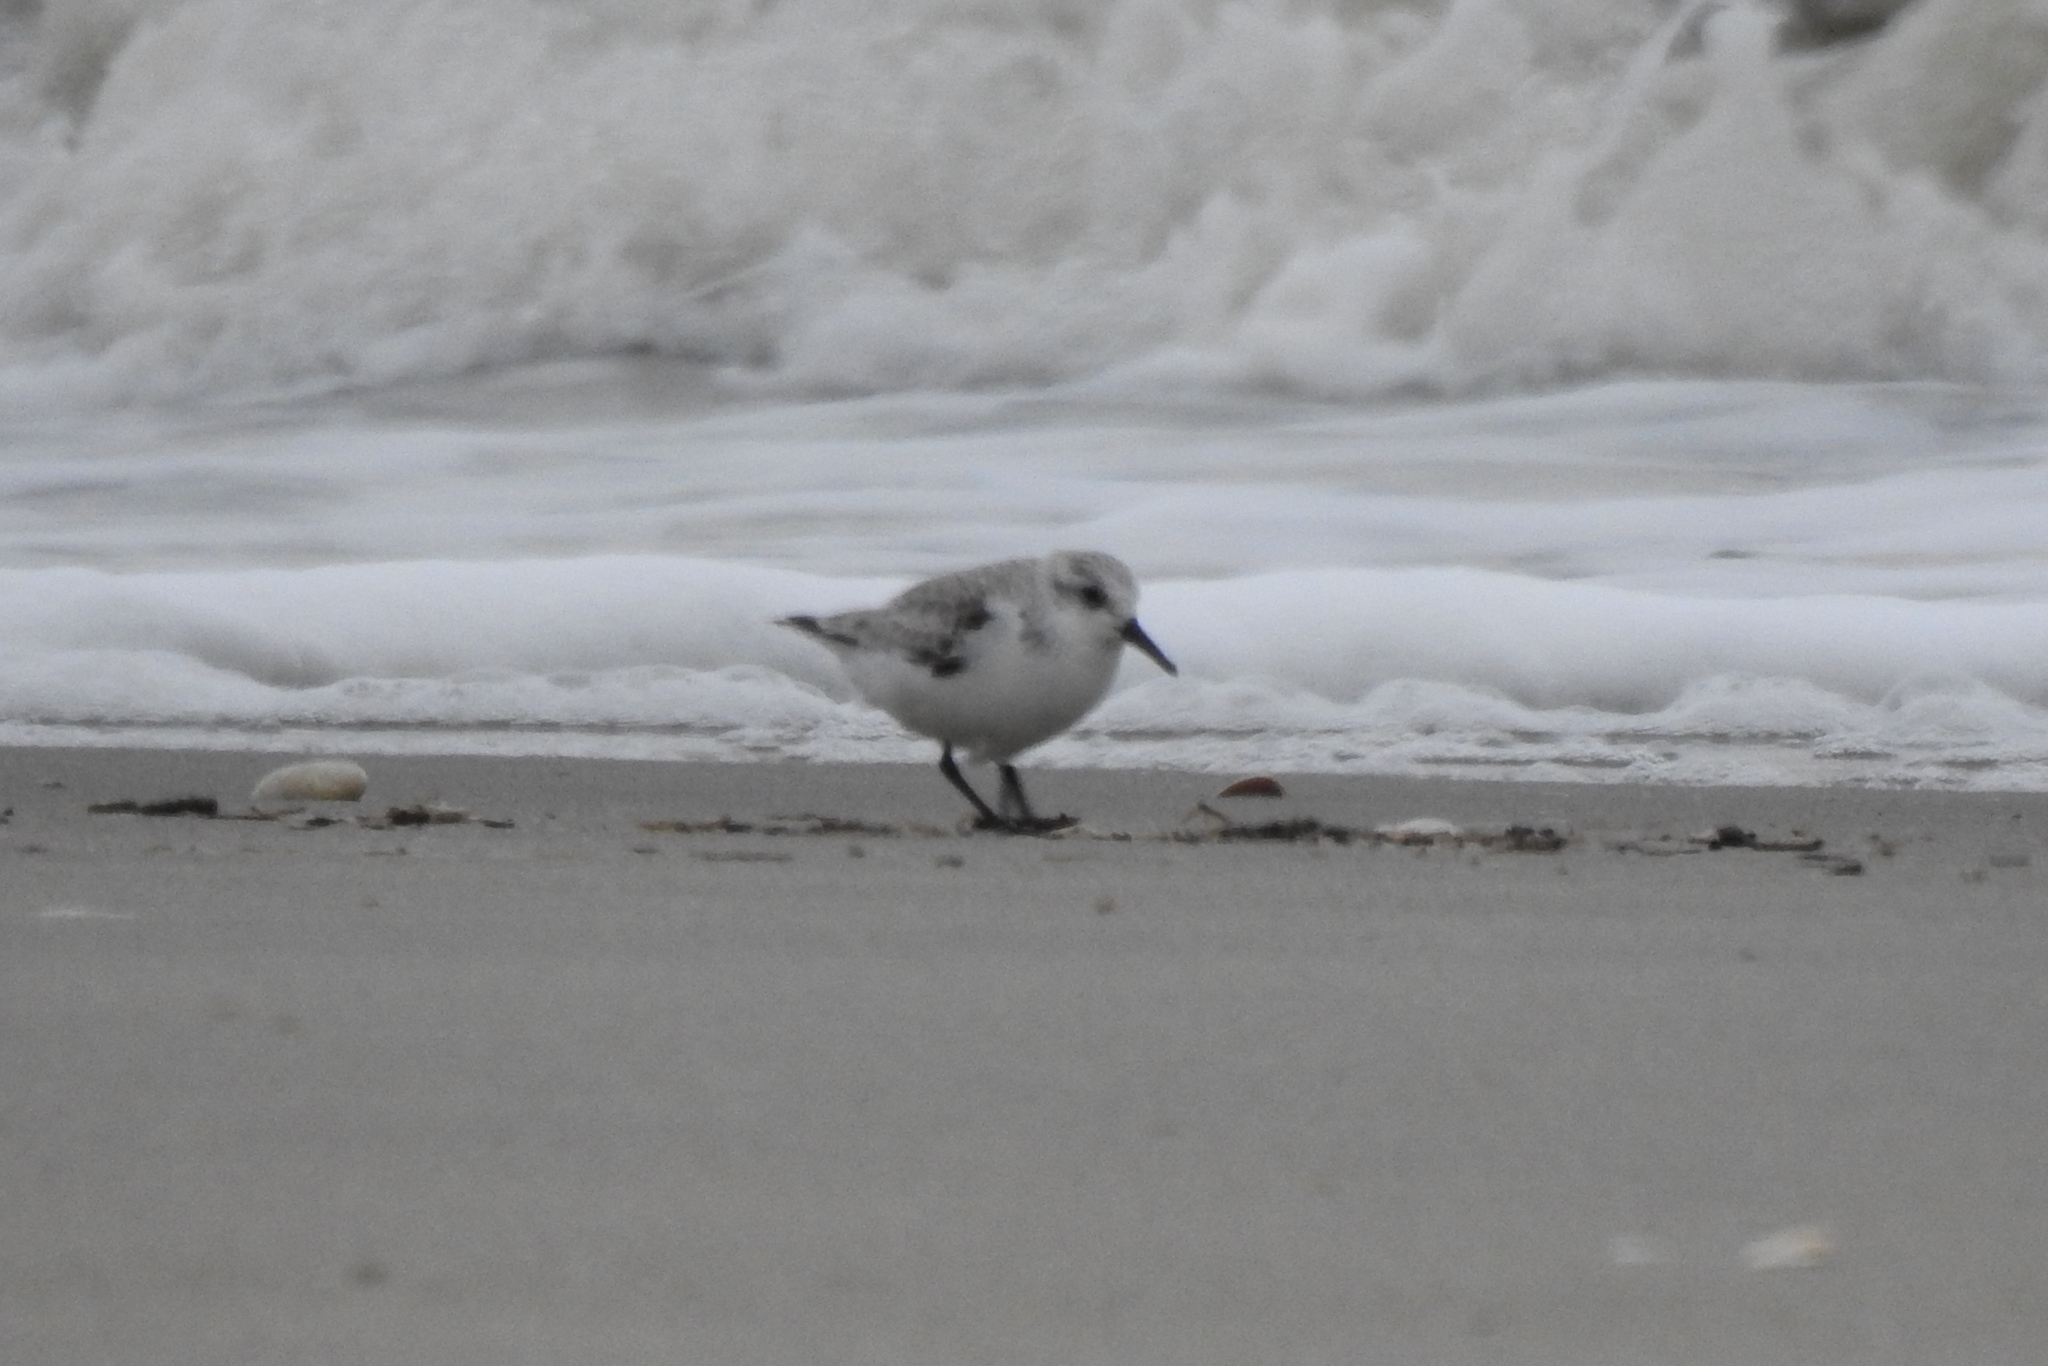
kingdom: Animalia
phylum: Chordata
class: Aves
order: Charadriiformes
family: Scolopacidae
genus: Calidris
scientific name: Calidris alba
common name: Sanderling
